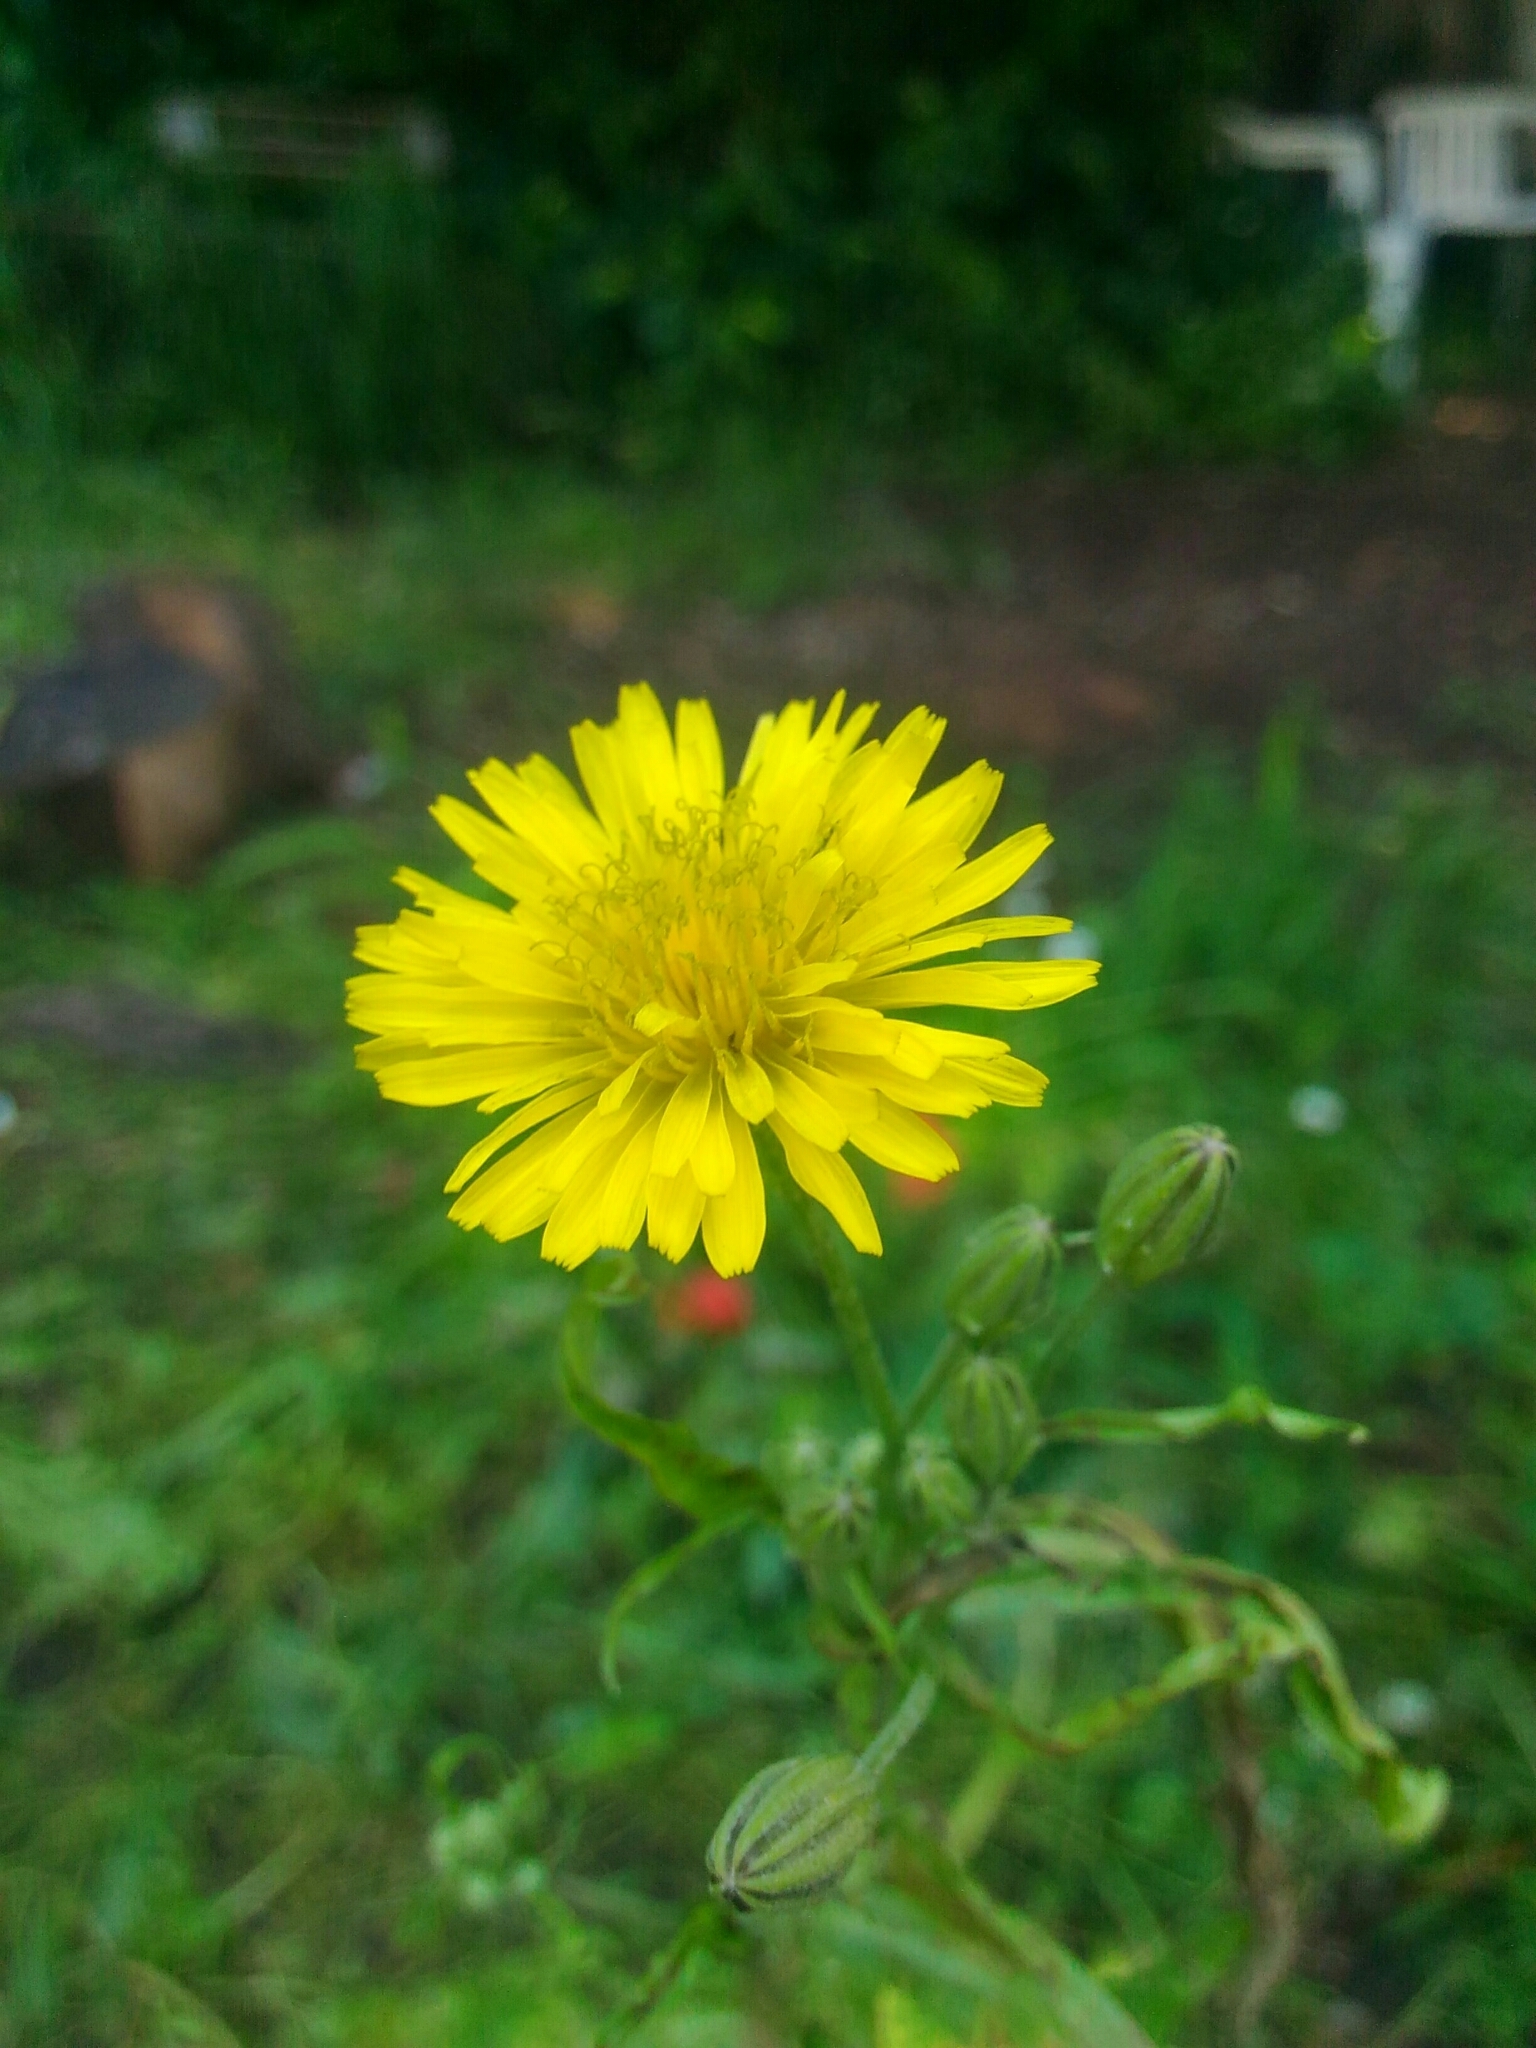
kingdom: Plantae
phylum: Tracheophyta
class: Magnoliopsida
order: Asterales
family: Asteraceae
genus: Sonchus
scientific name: Sonchus tenerrimus
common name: Clammy sowthistle
